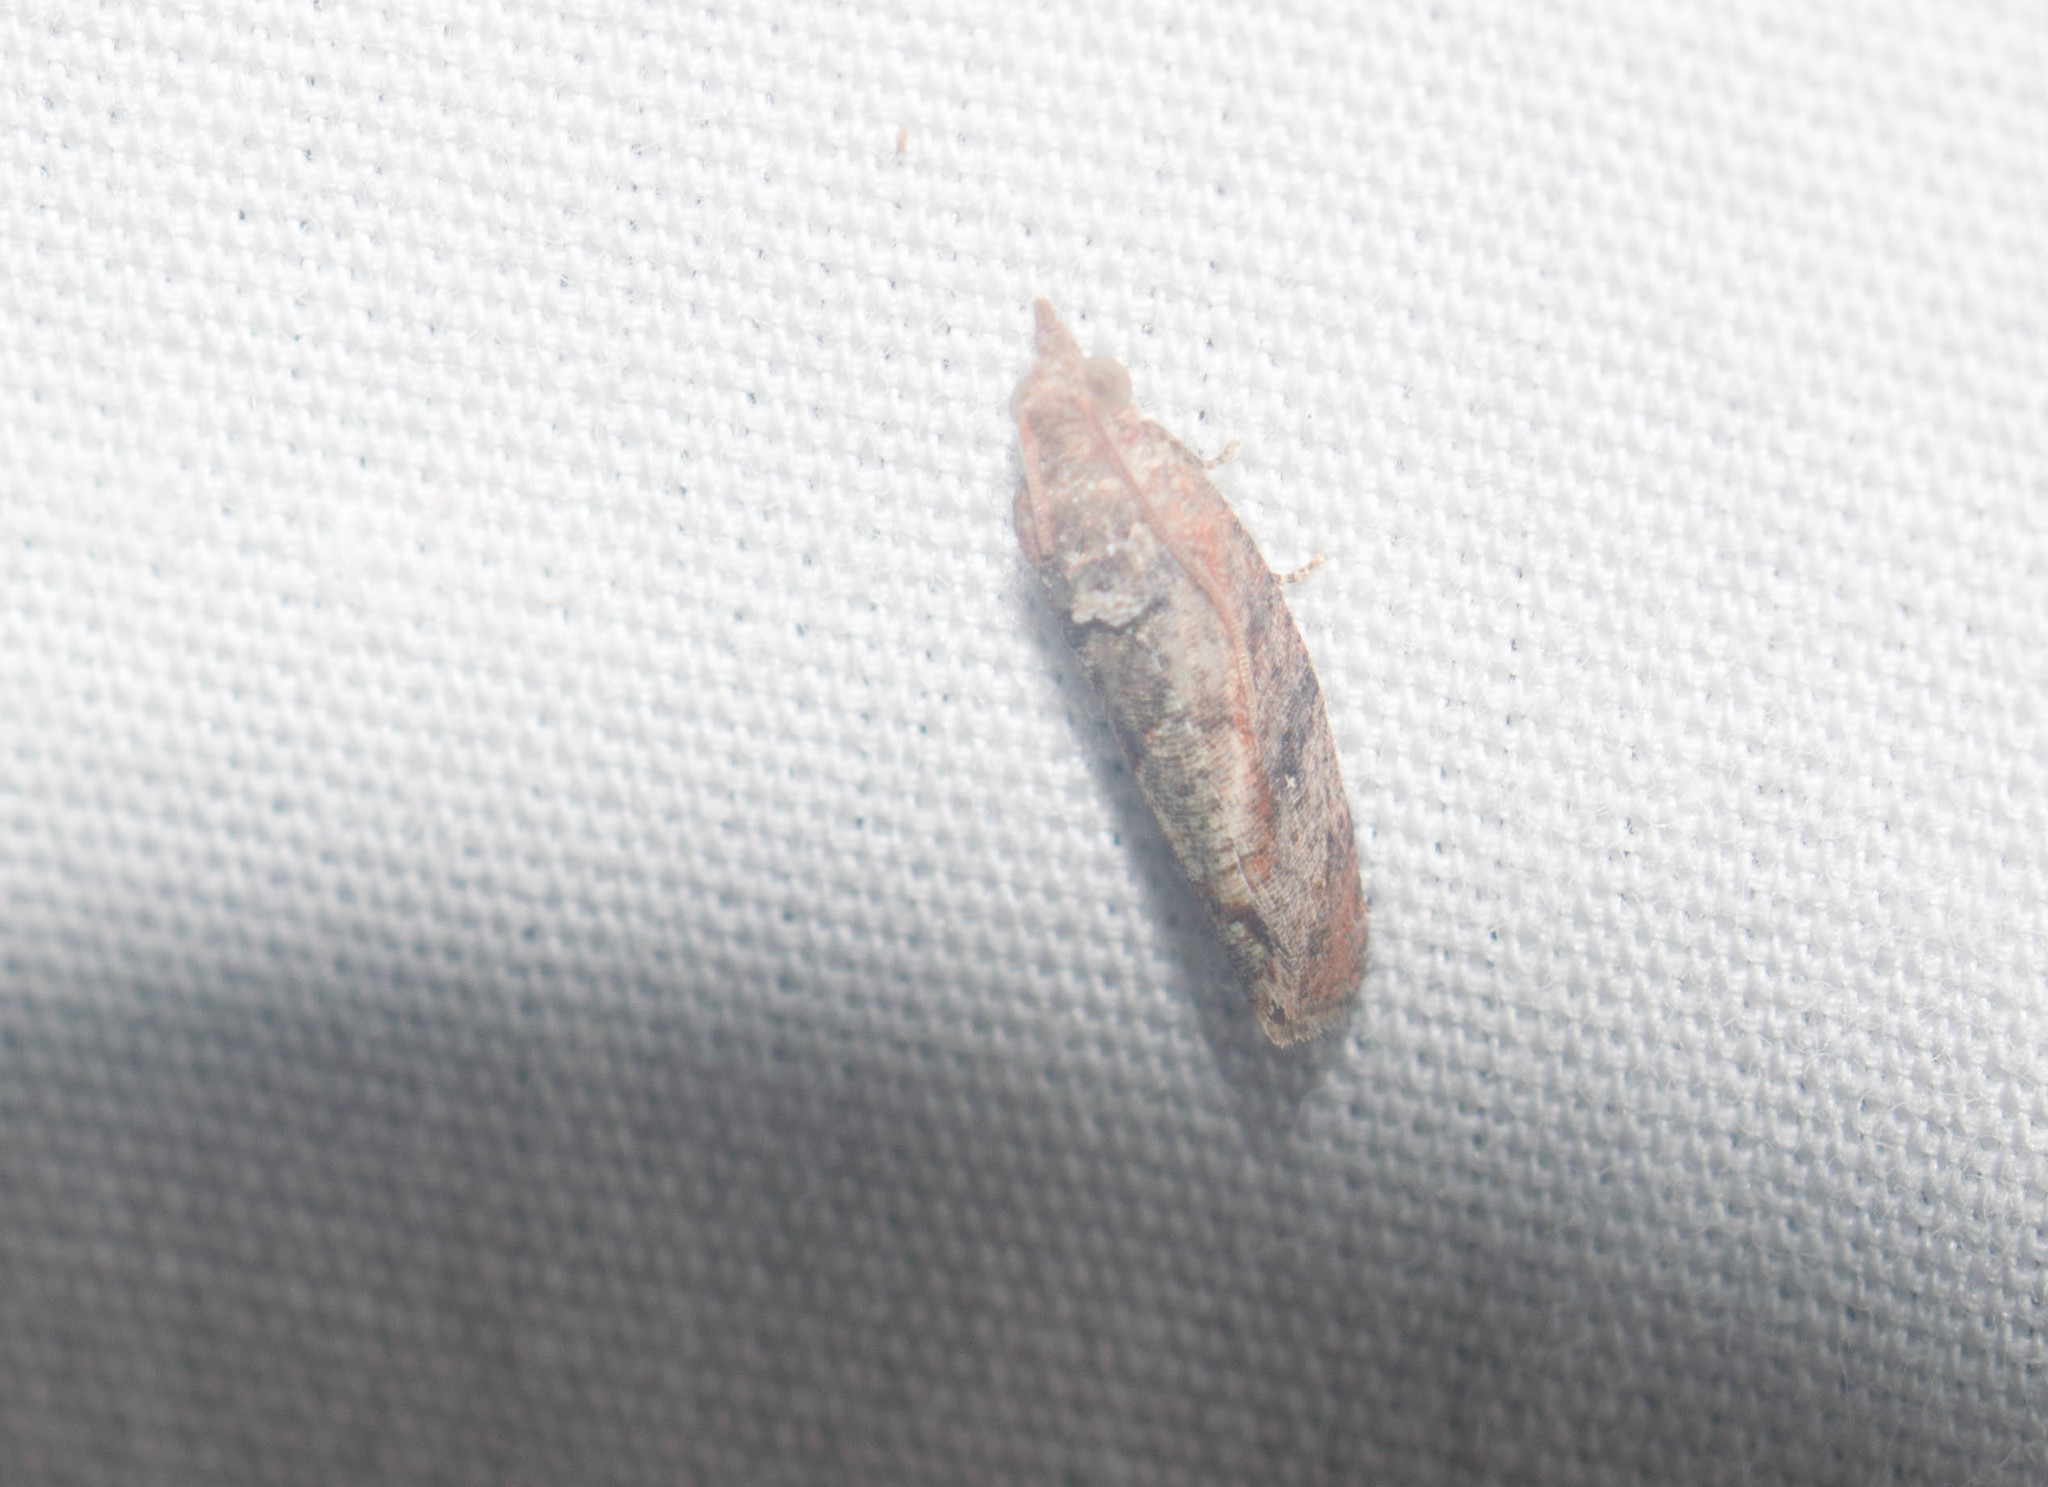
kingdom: Animalia
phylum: Arthropoda
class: Insecta
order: Lepidoptera
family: Tortricidae
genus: Cryptophlebia
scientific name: Cryptophlebia illepida
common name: Moth
